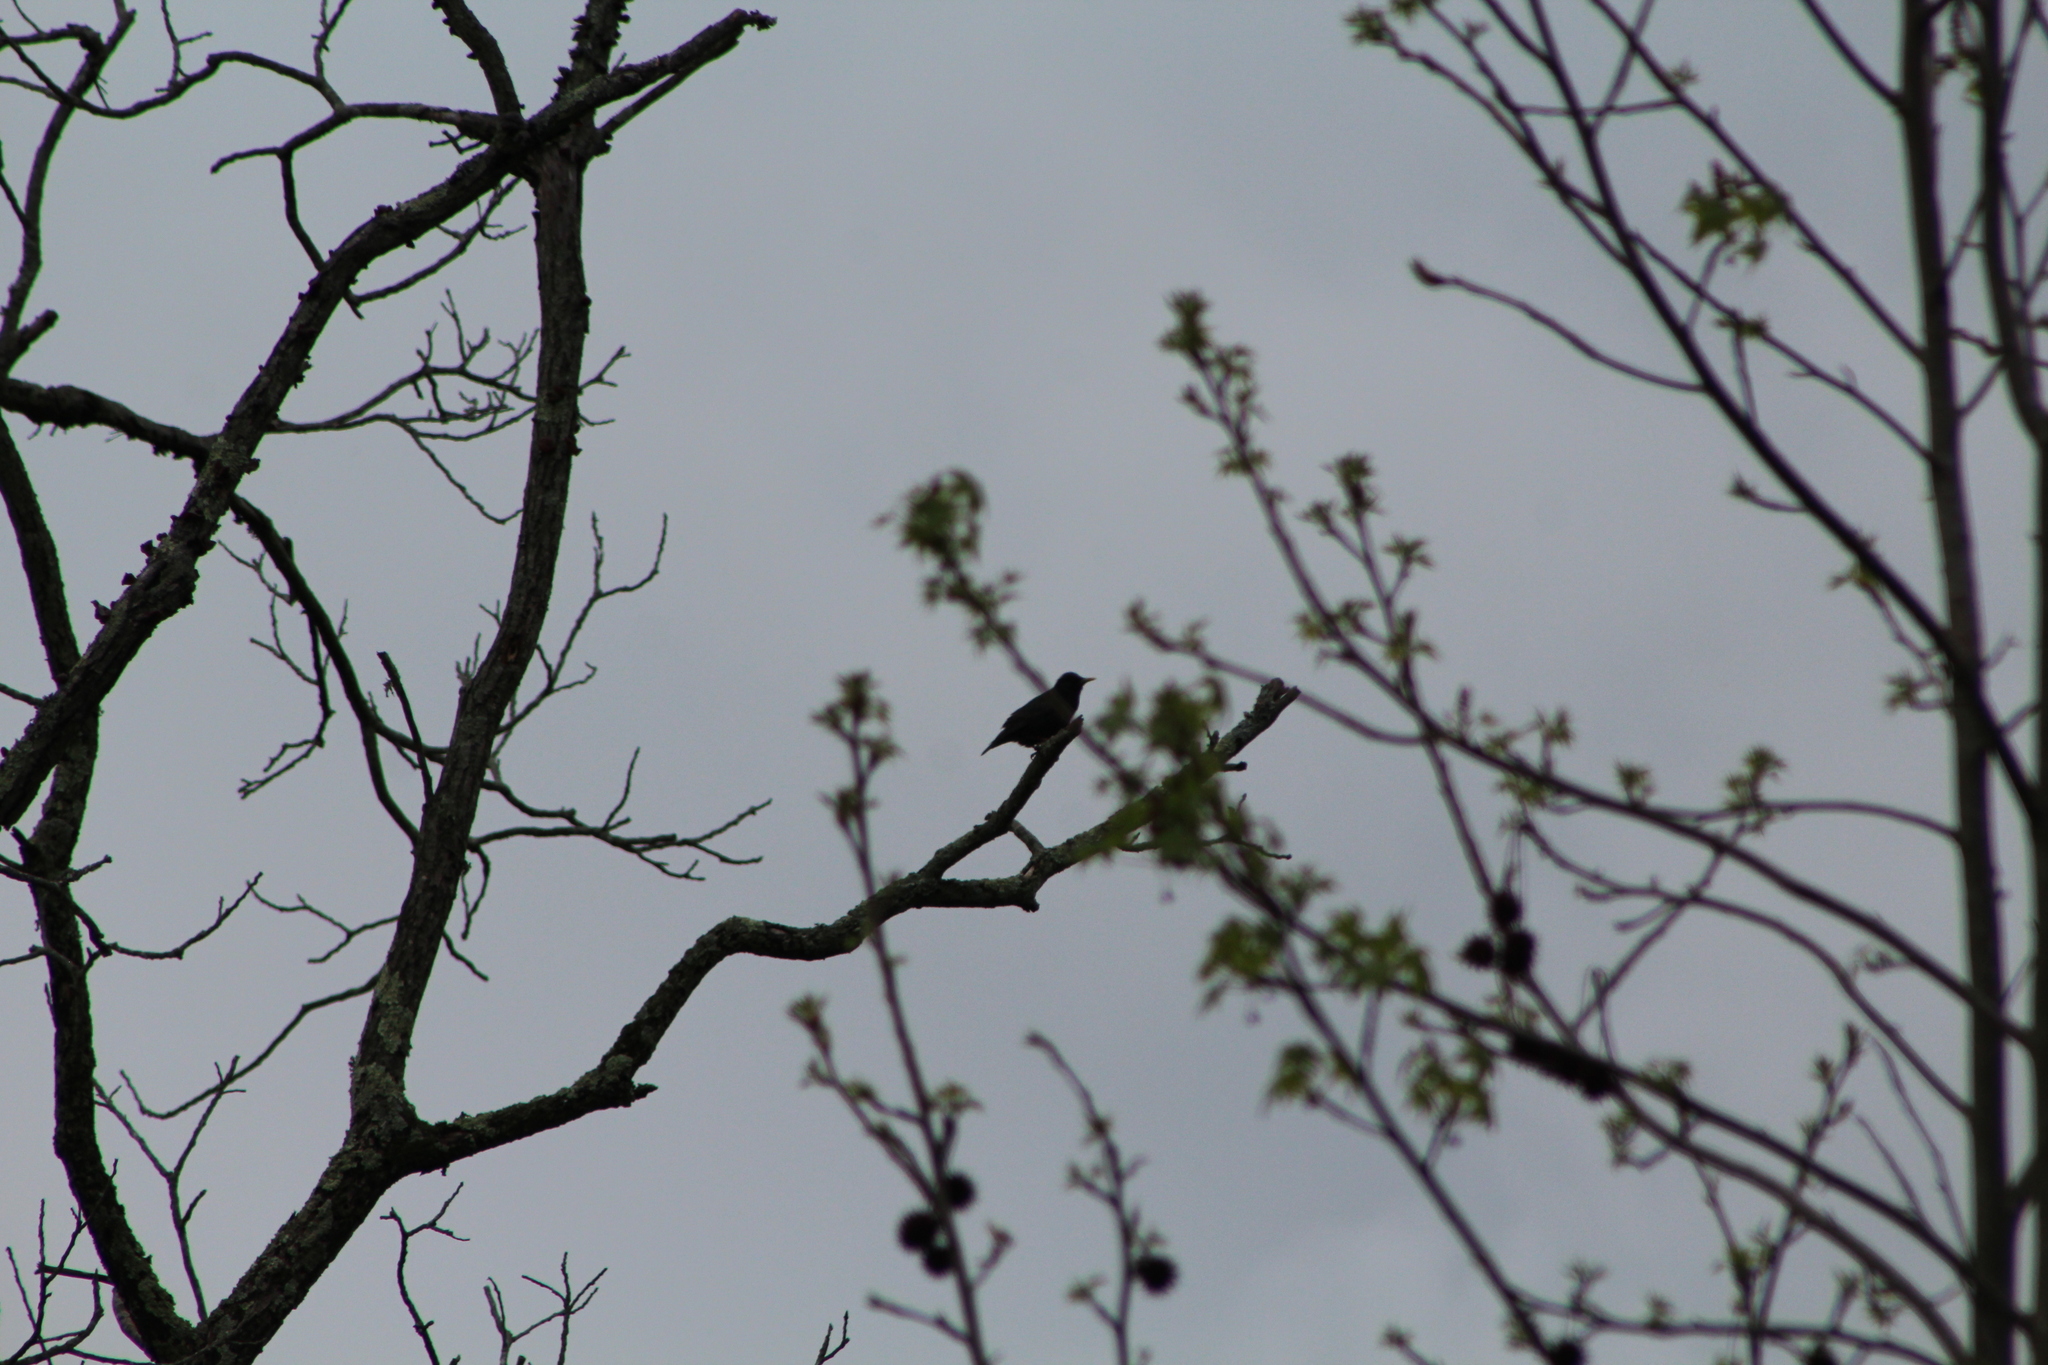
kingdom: Animalia
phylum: Chordata
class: Aves
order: Passeriformes
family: Sturnidae
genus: Sturnus
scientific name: Sturnus vulgaris
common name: Common starling
